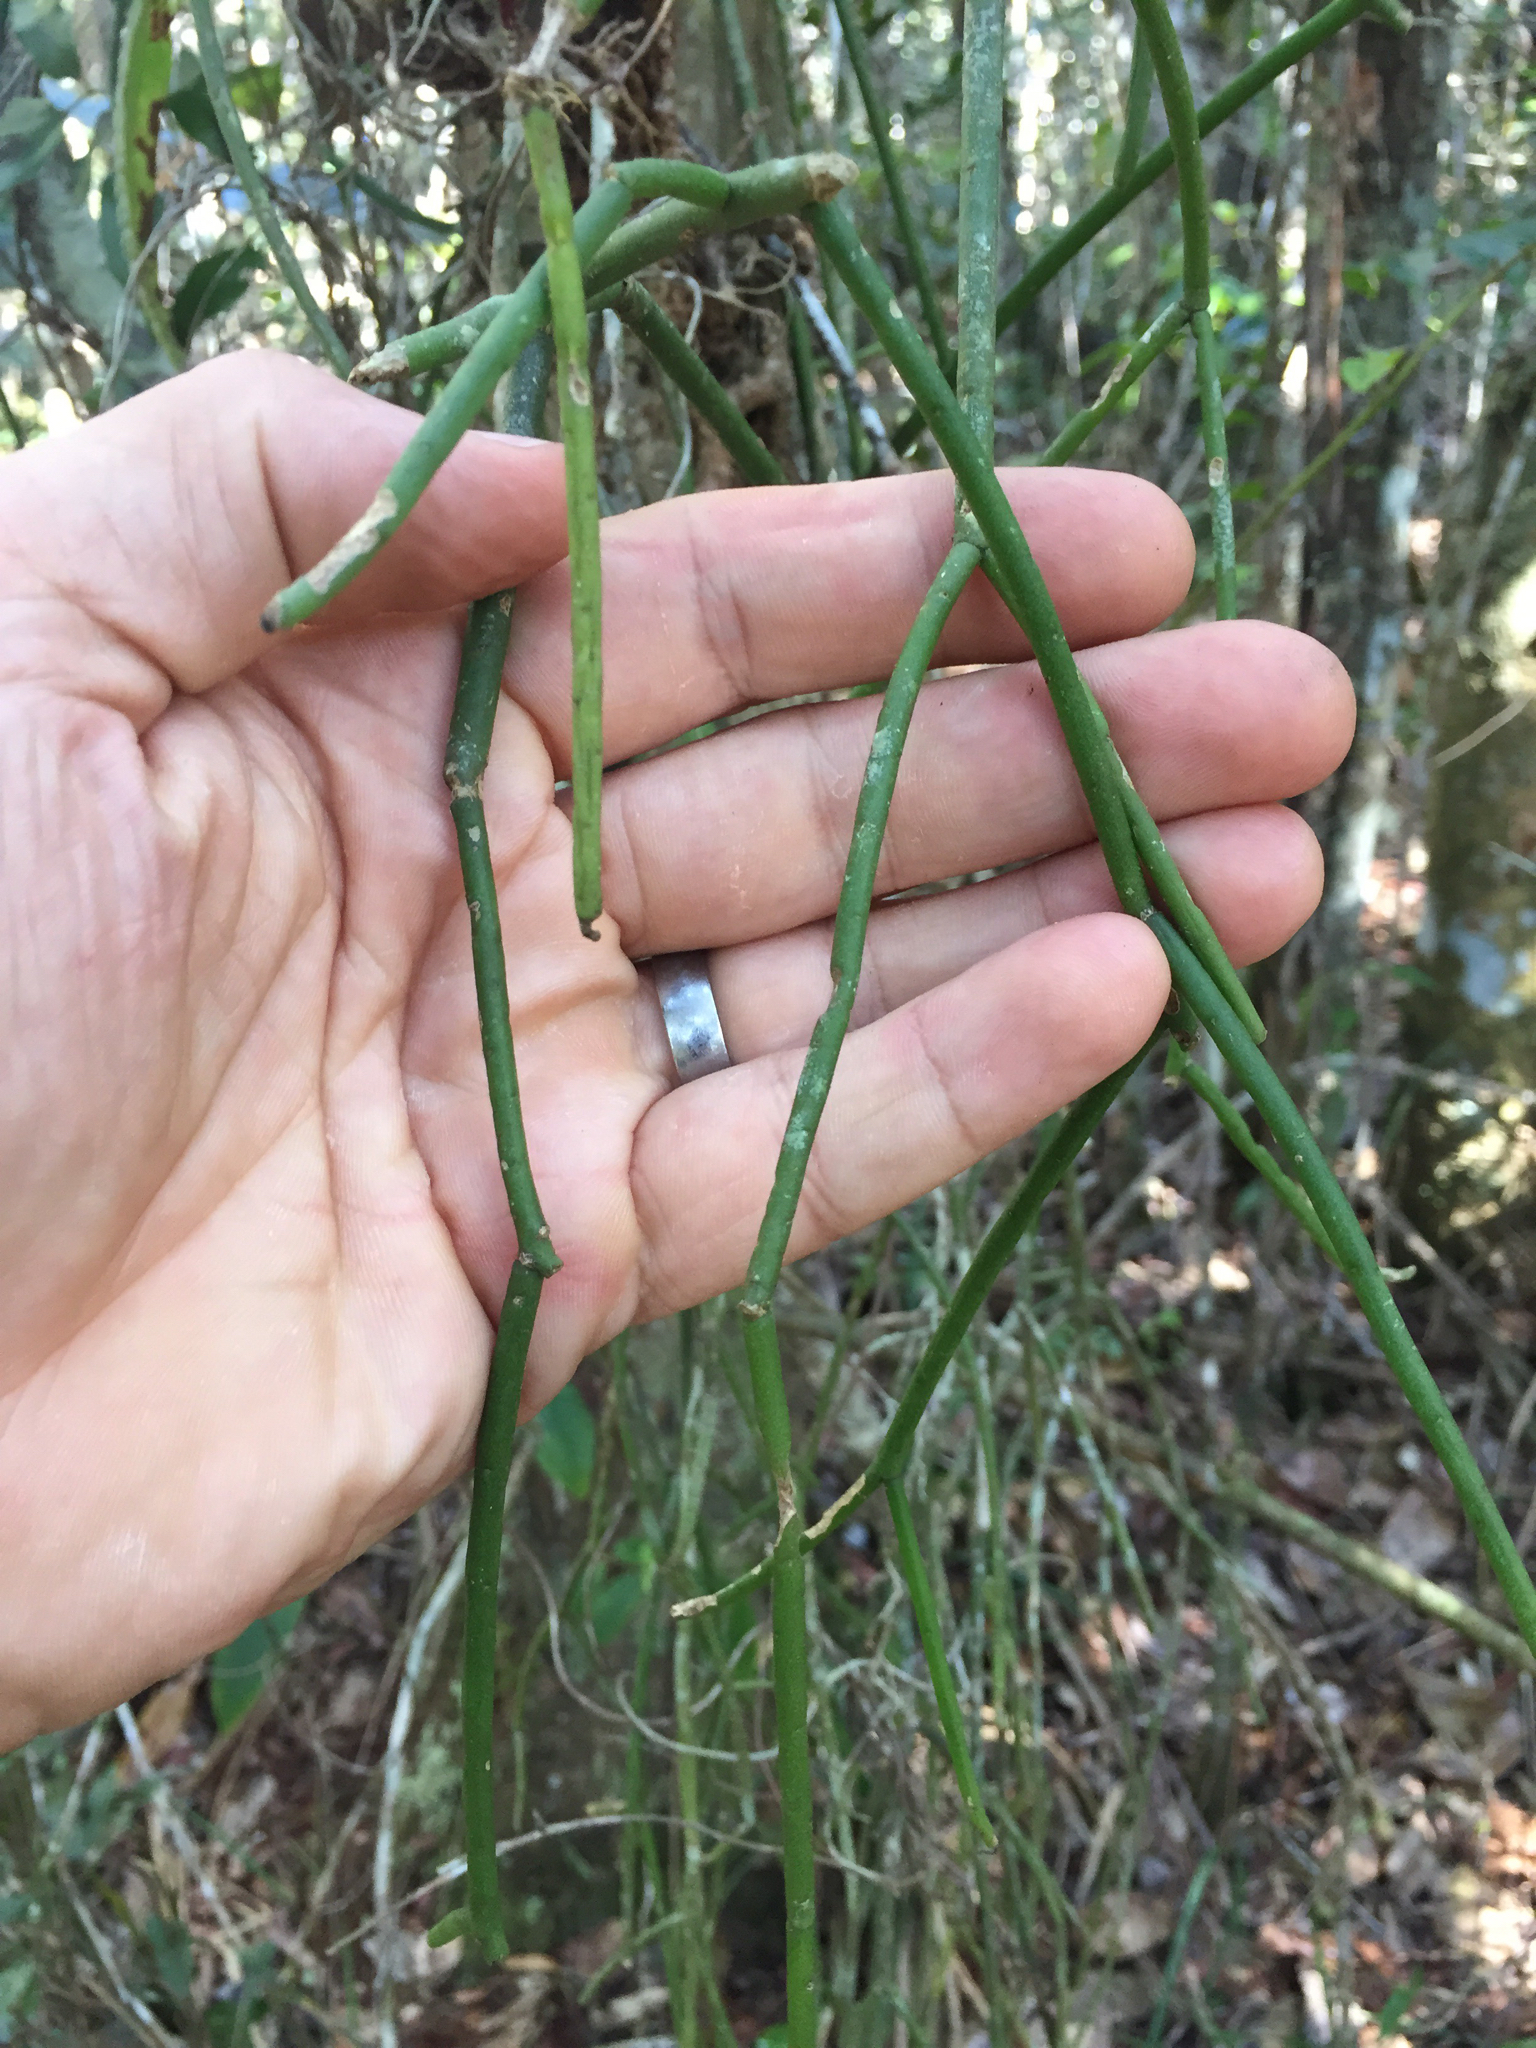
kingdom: Plantae
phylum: Tracheophyta
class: Magnoliopsida
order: Caryophyllales
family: Cactaceae
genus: Rhipsalis
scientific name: Rhipsalis baccifera
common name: Mistletoe cactus
